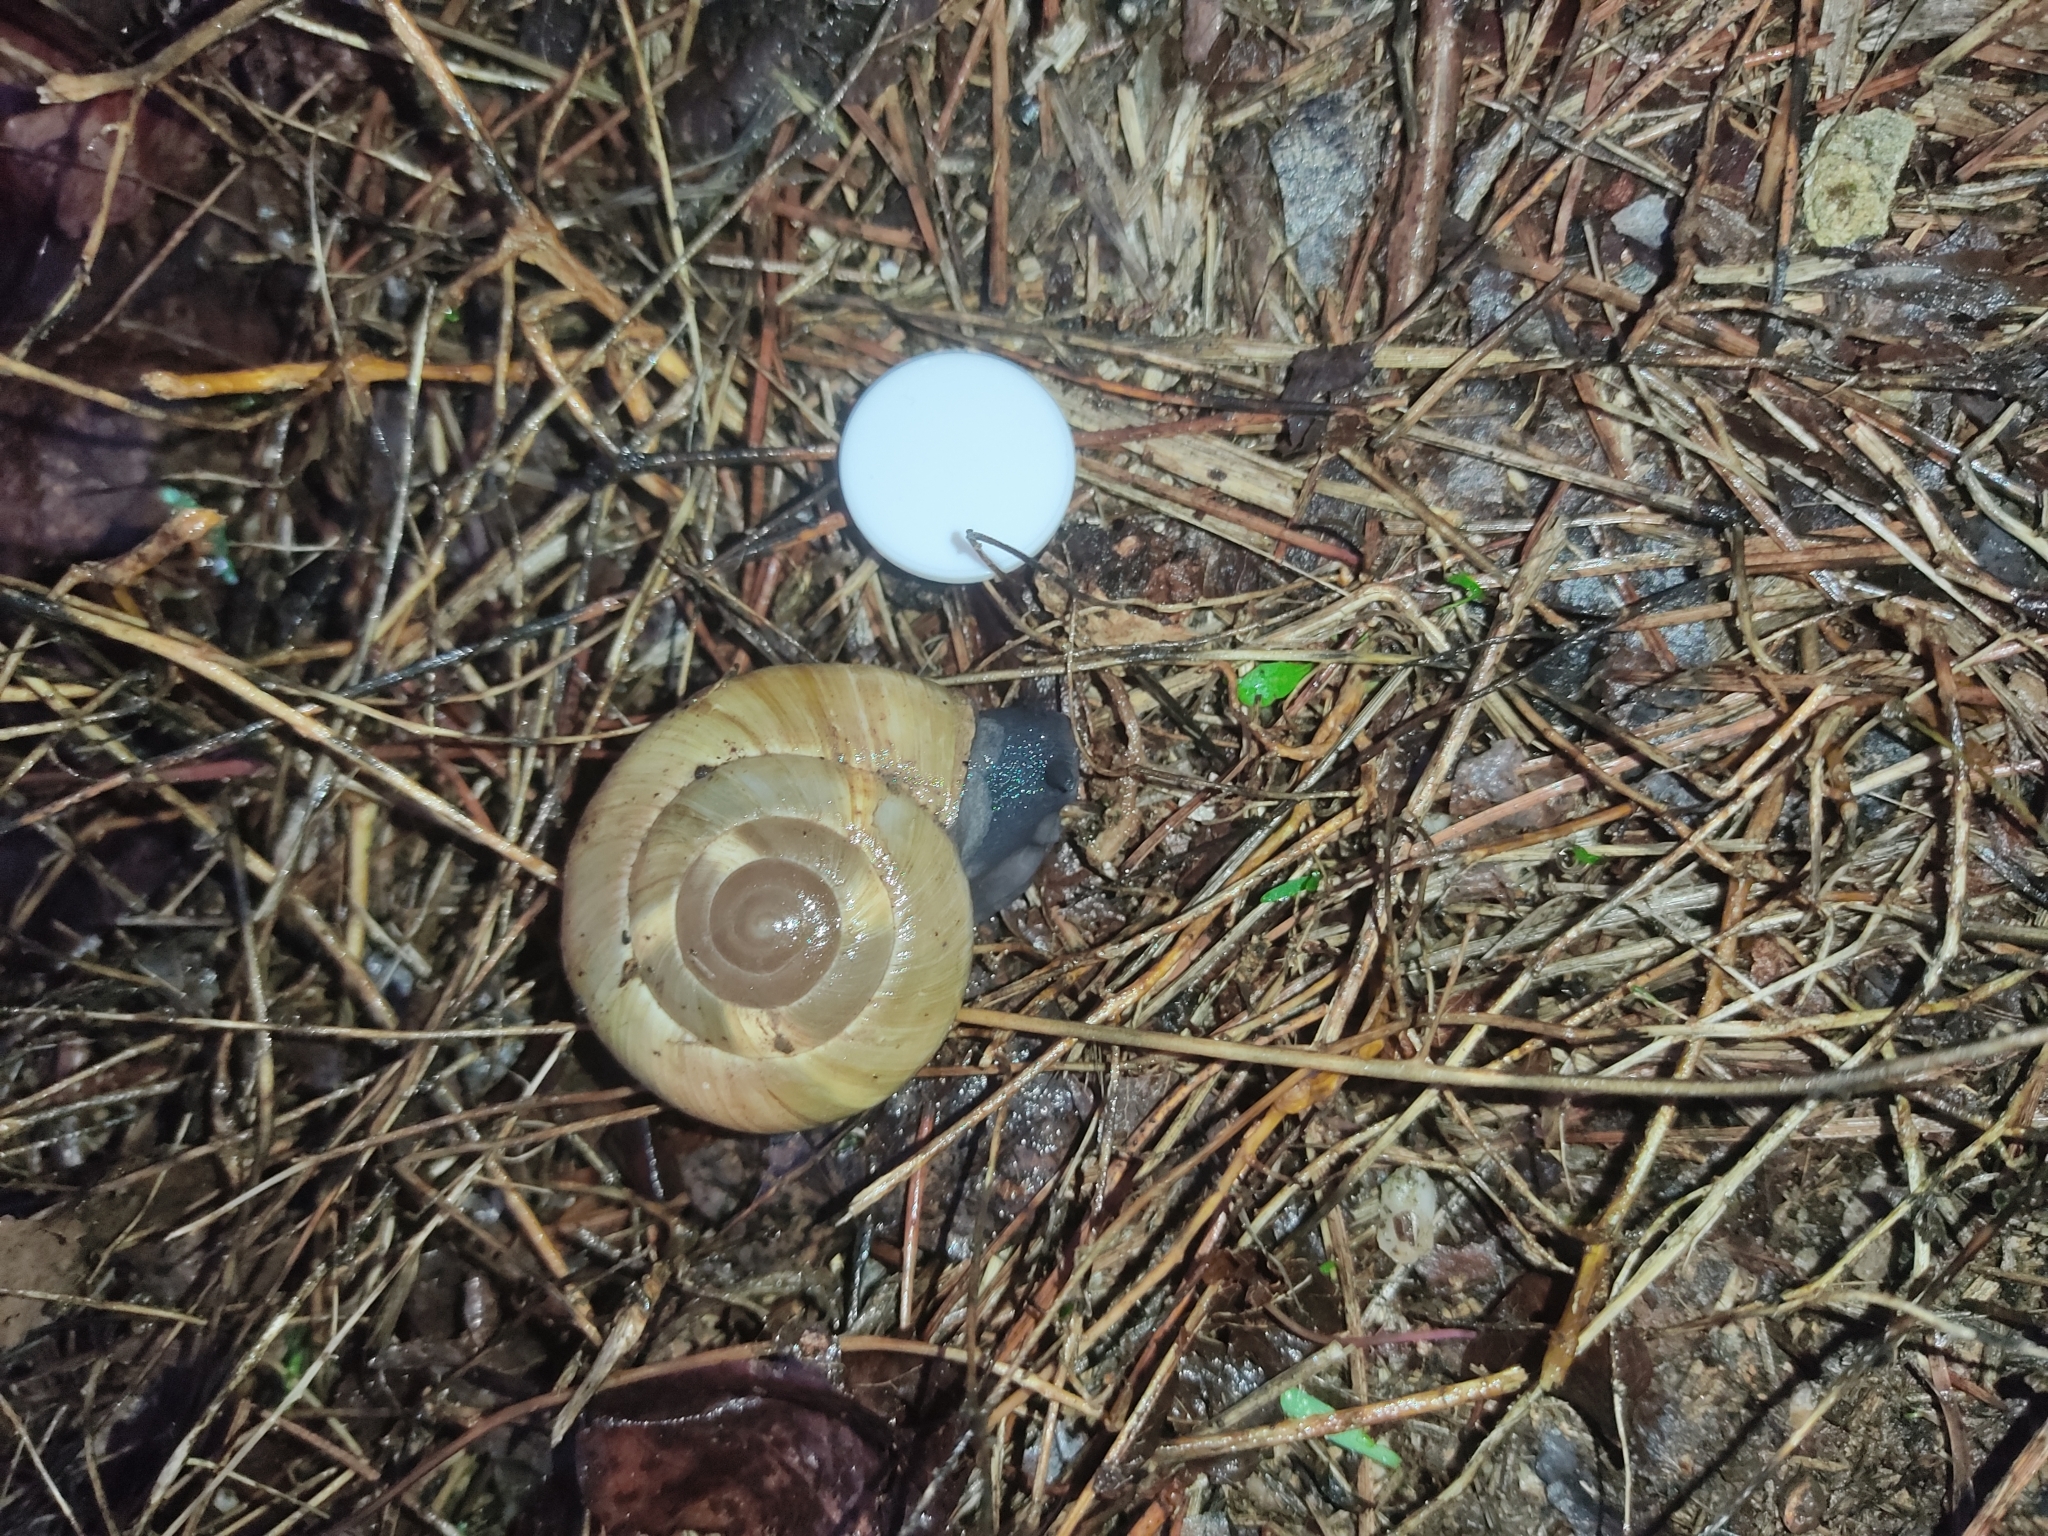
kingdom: Animalia
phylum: Mollusca
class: Gastropoda
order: Stylommatophora
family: Zonitidae
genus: Zonites
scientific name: Zonites algirus
